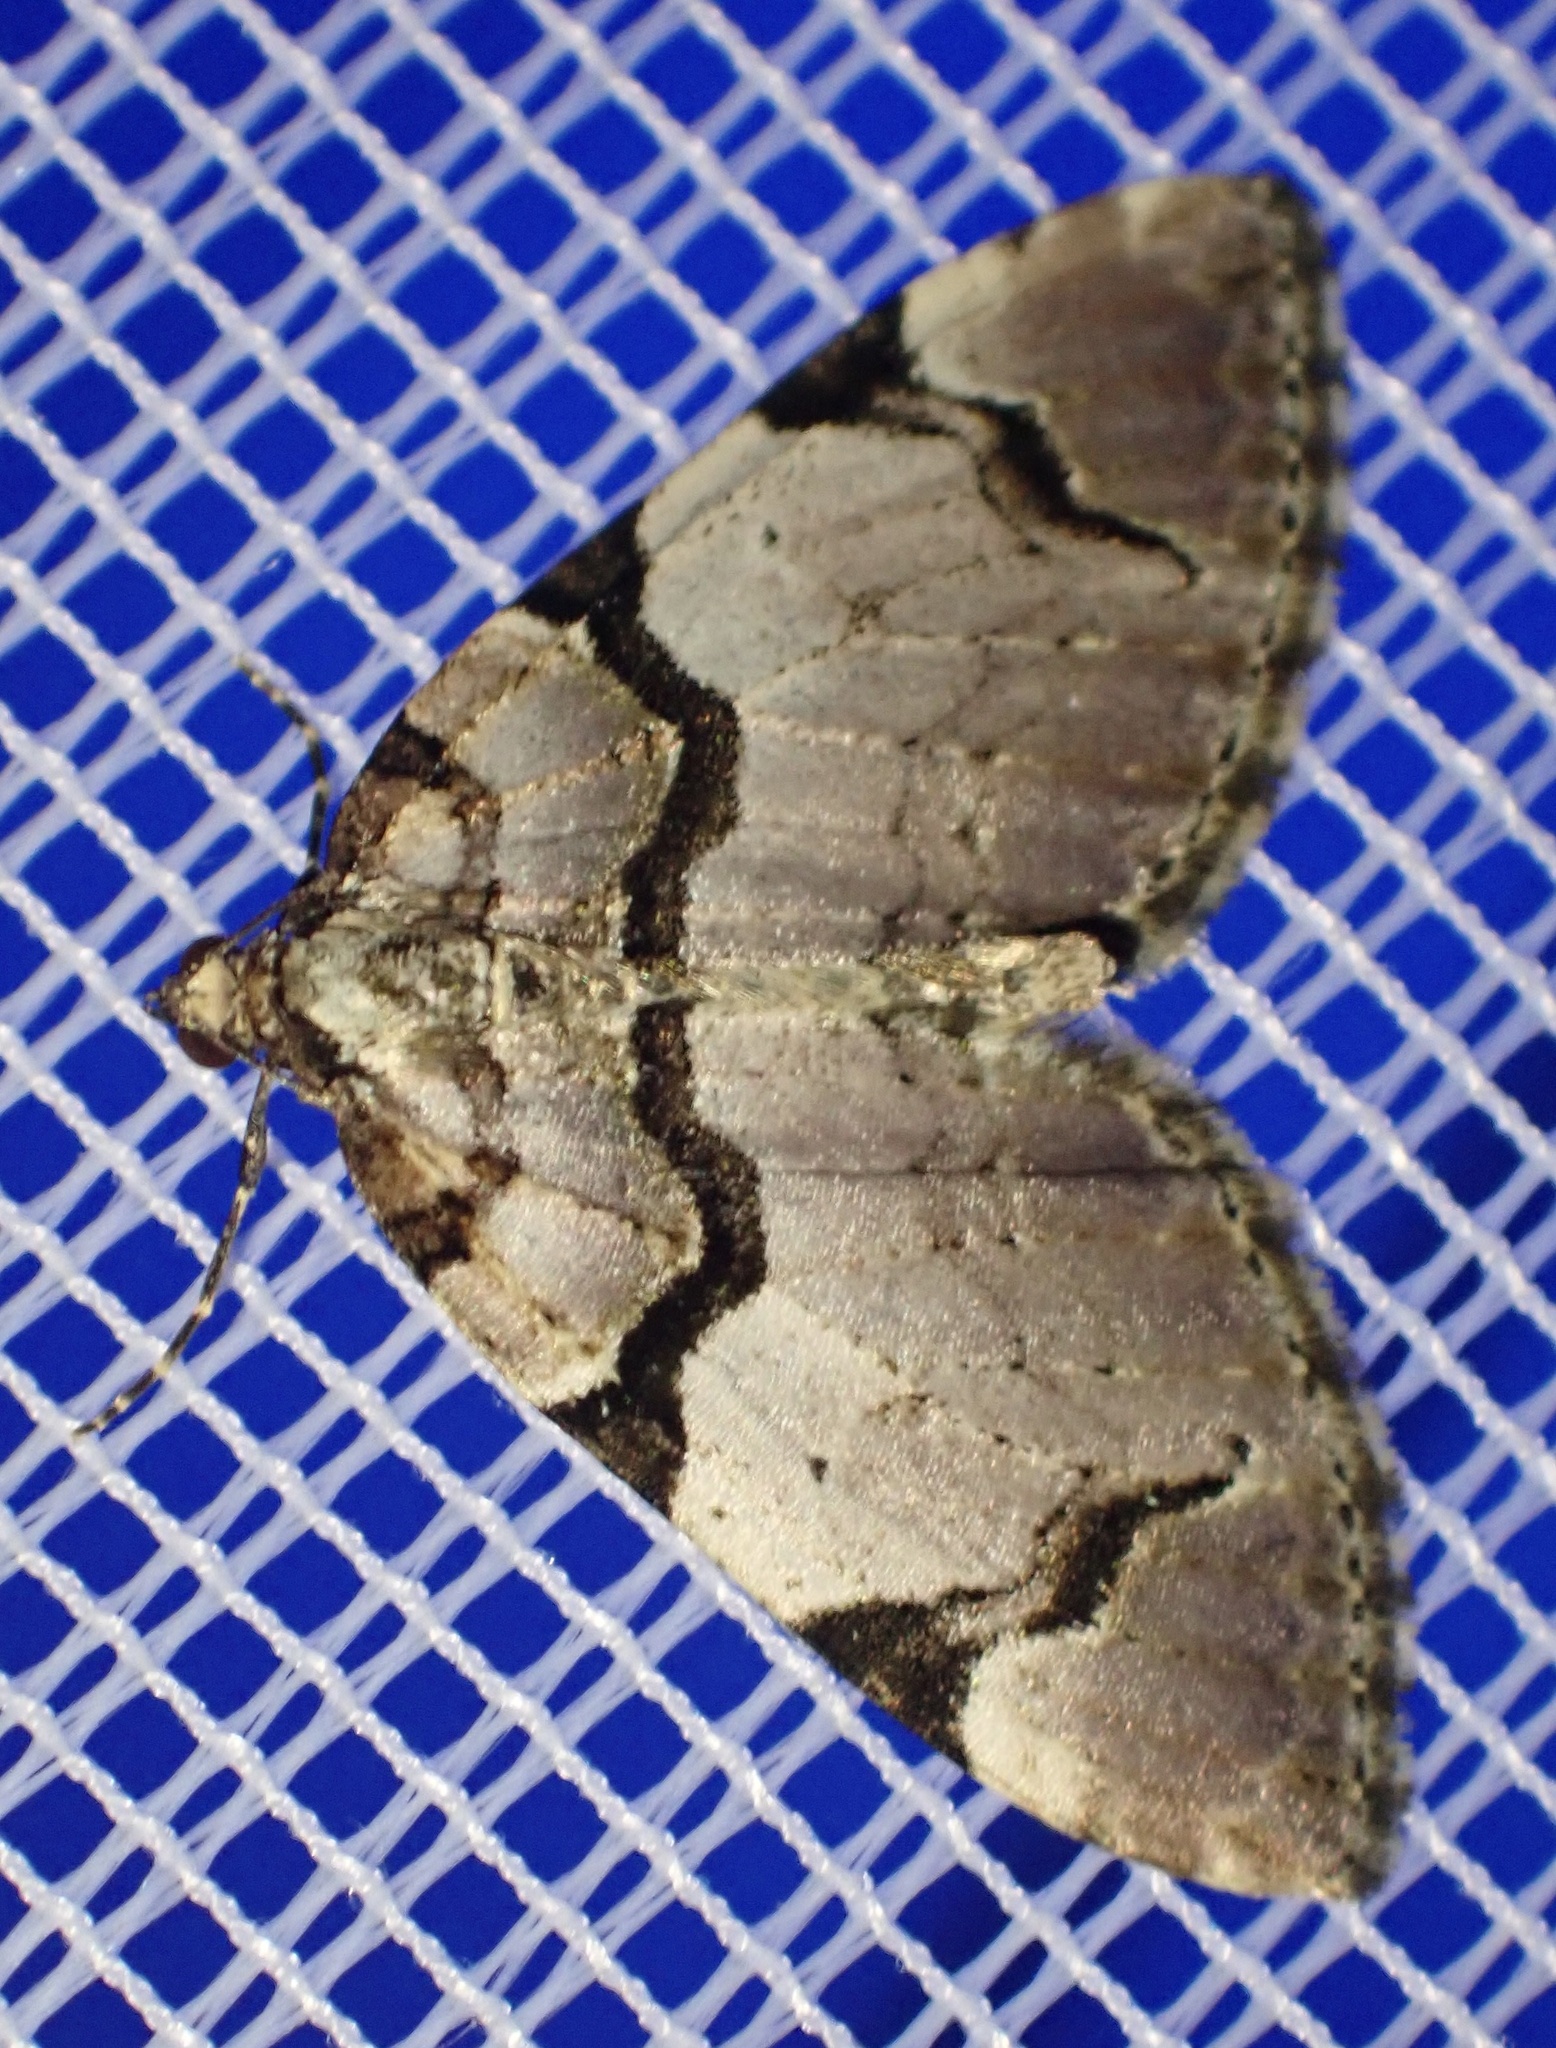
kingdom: Animalia
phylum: Arthropoda
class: Insecta
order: Lepidoptera
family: Geometridae
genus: Anticlea
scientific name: Anticlea derivata
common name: Streamer
